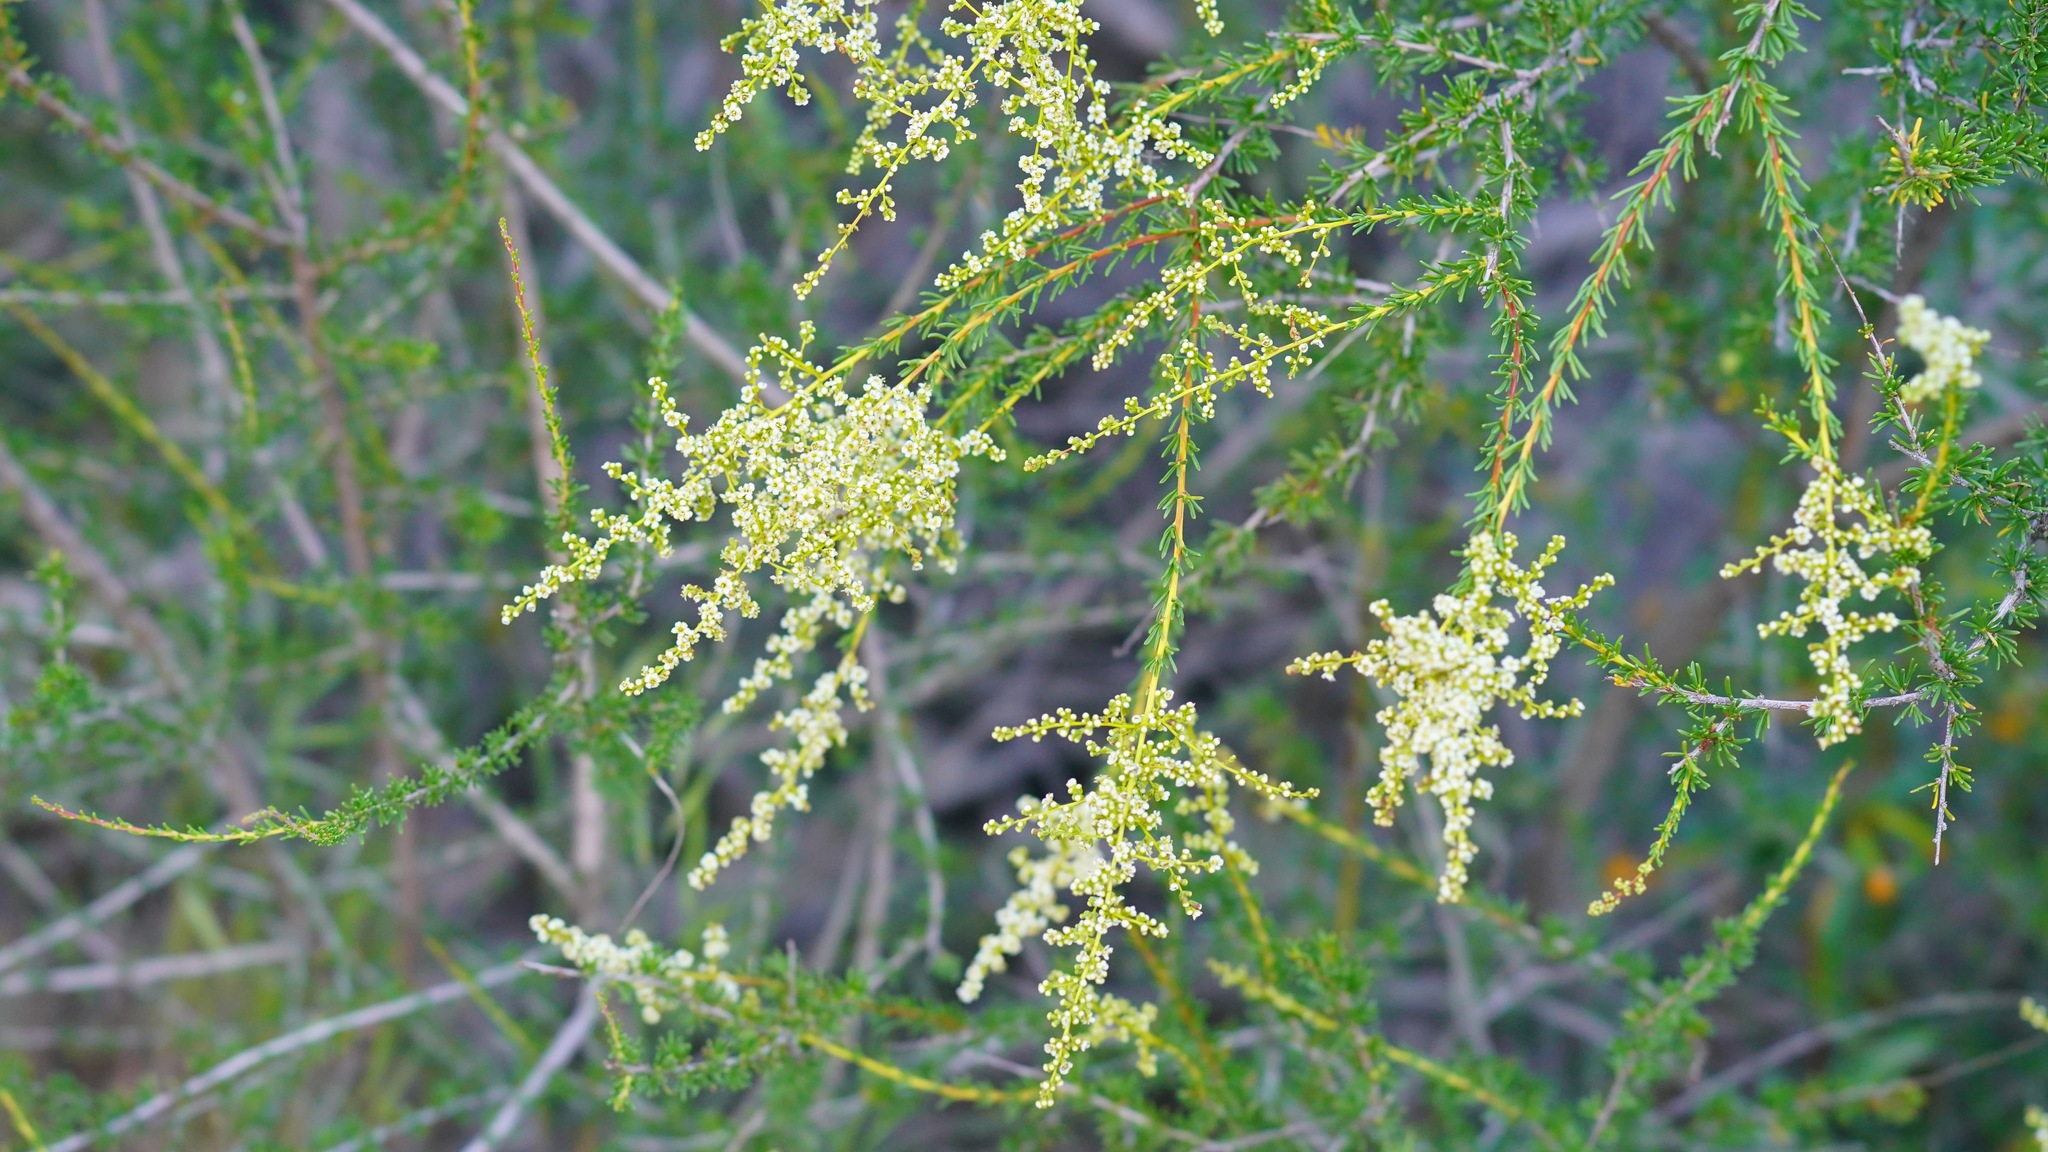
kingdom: Plantae
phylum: Tracheophyta
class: Magnoliopsida
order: Rosales
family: Rosaceae
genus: Adenostoma
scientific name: Adenostoma fasciculatum
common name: Chamise
